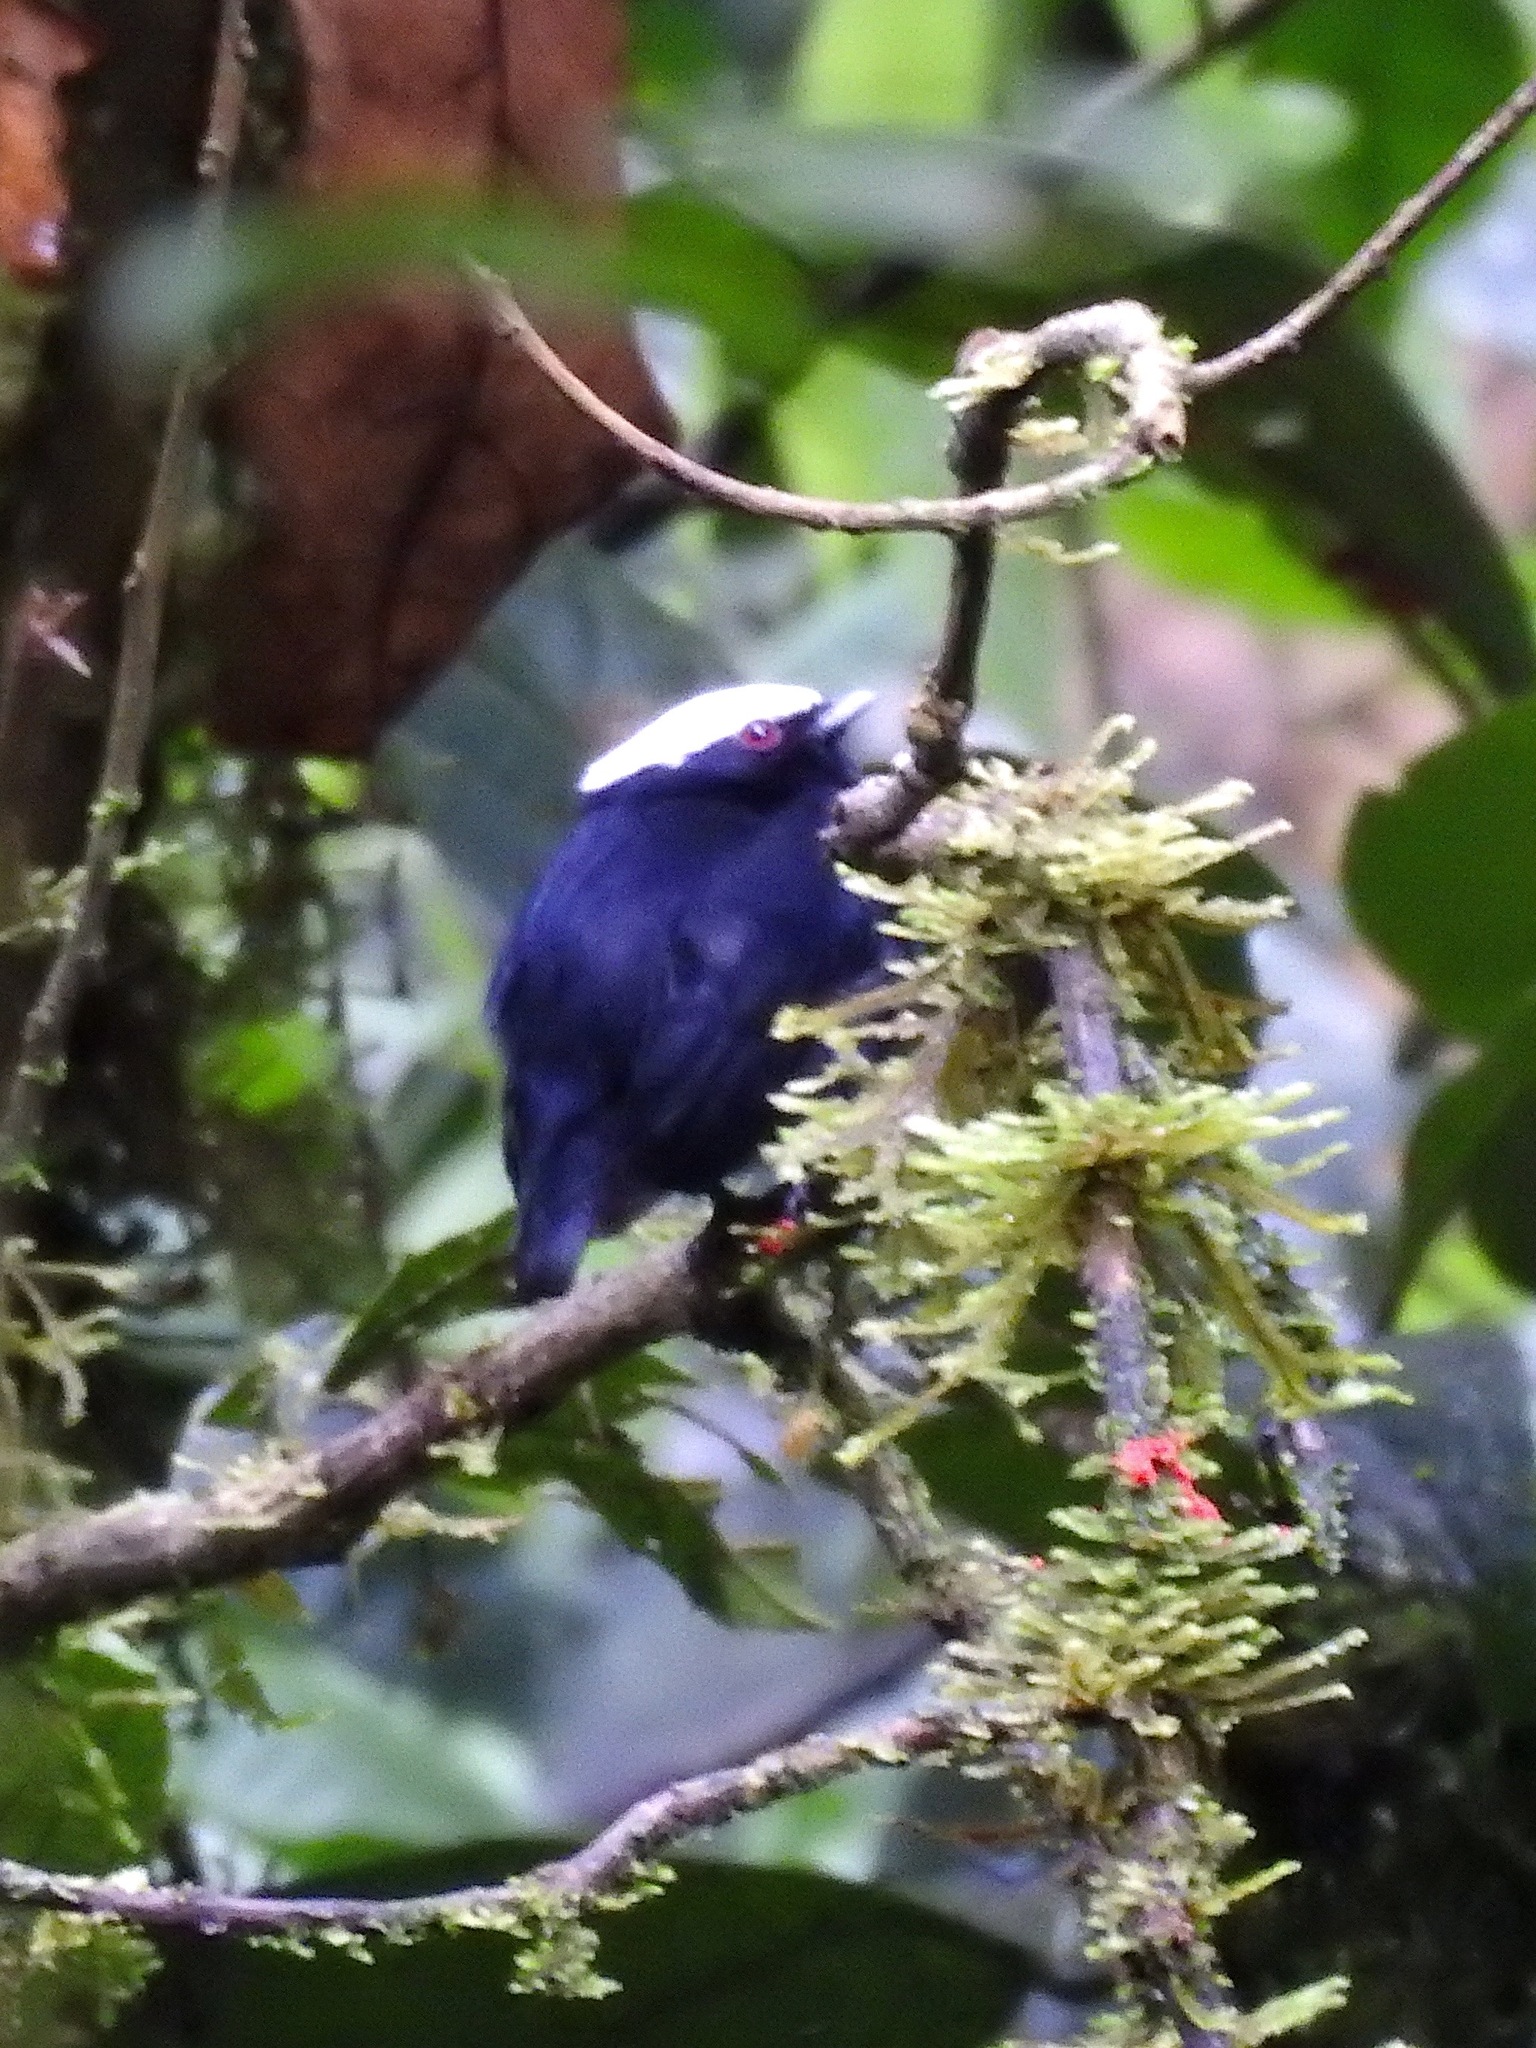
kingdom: Animalia
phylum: Chordata
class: Aves
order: Passeriformes
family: Pipridae
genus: Pipra
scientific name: Pipra pipra
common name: White-crowned manakin
